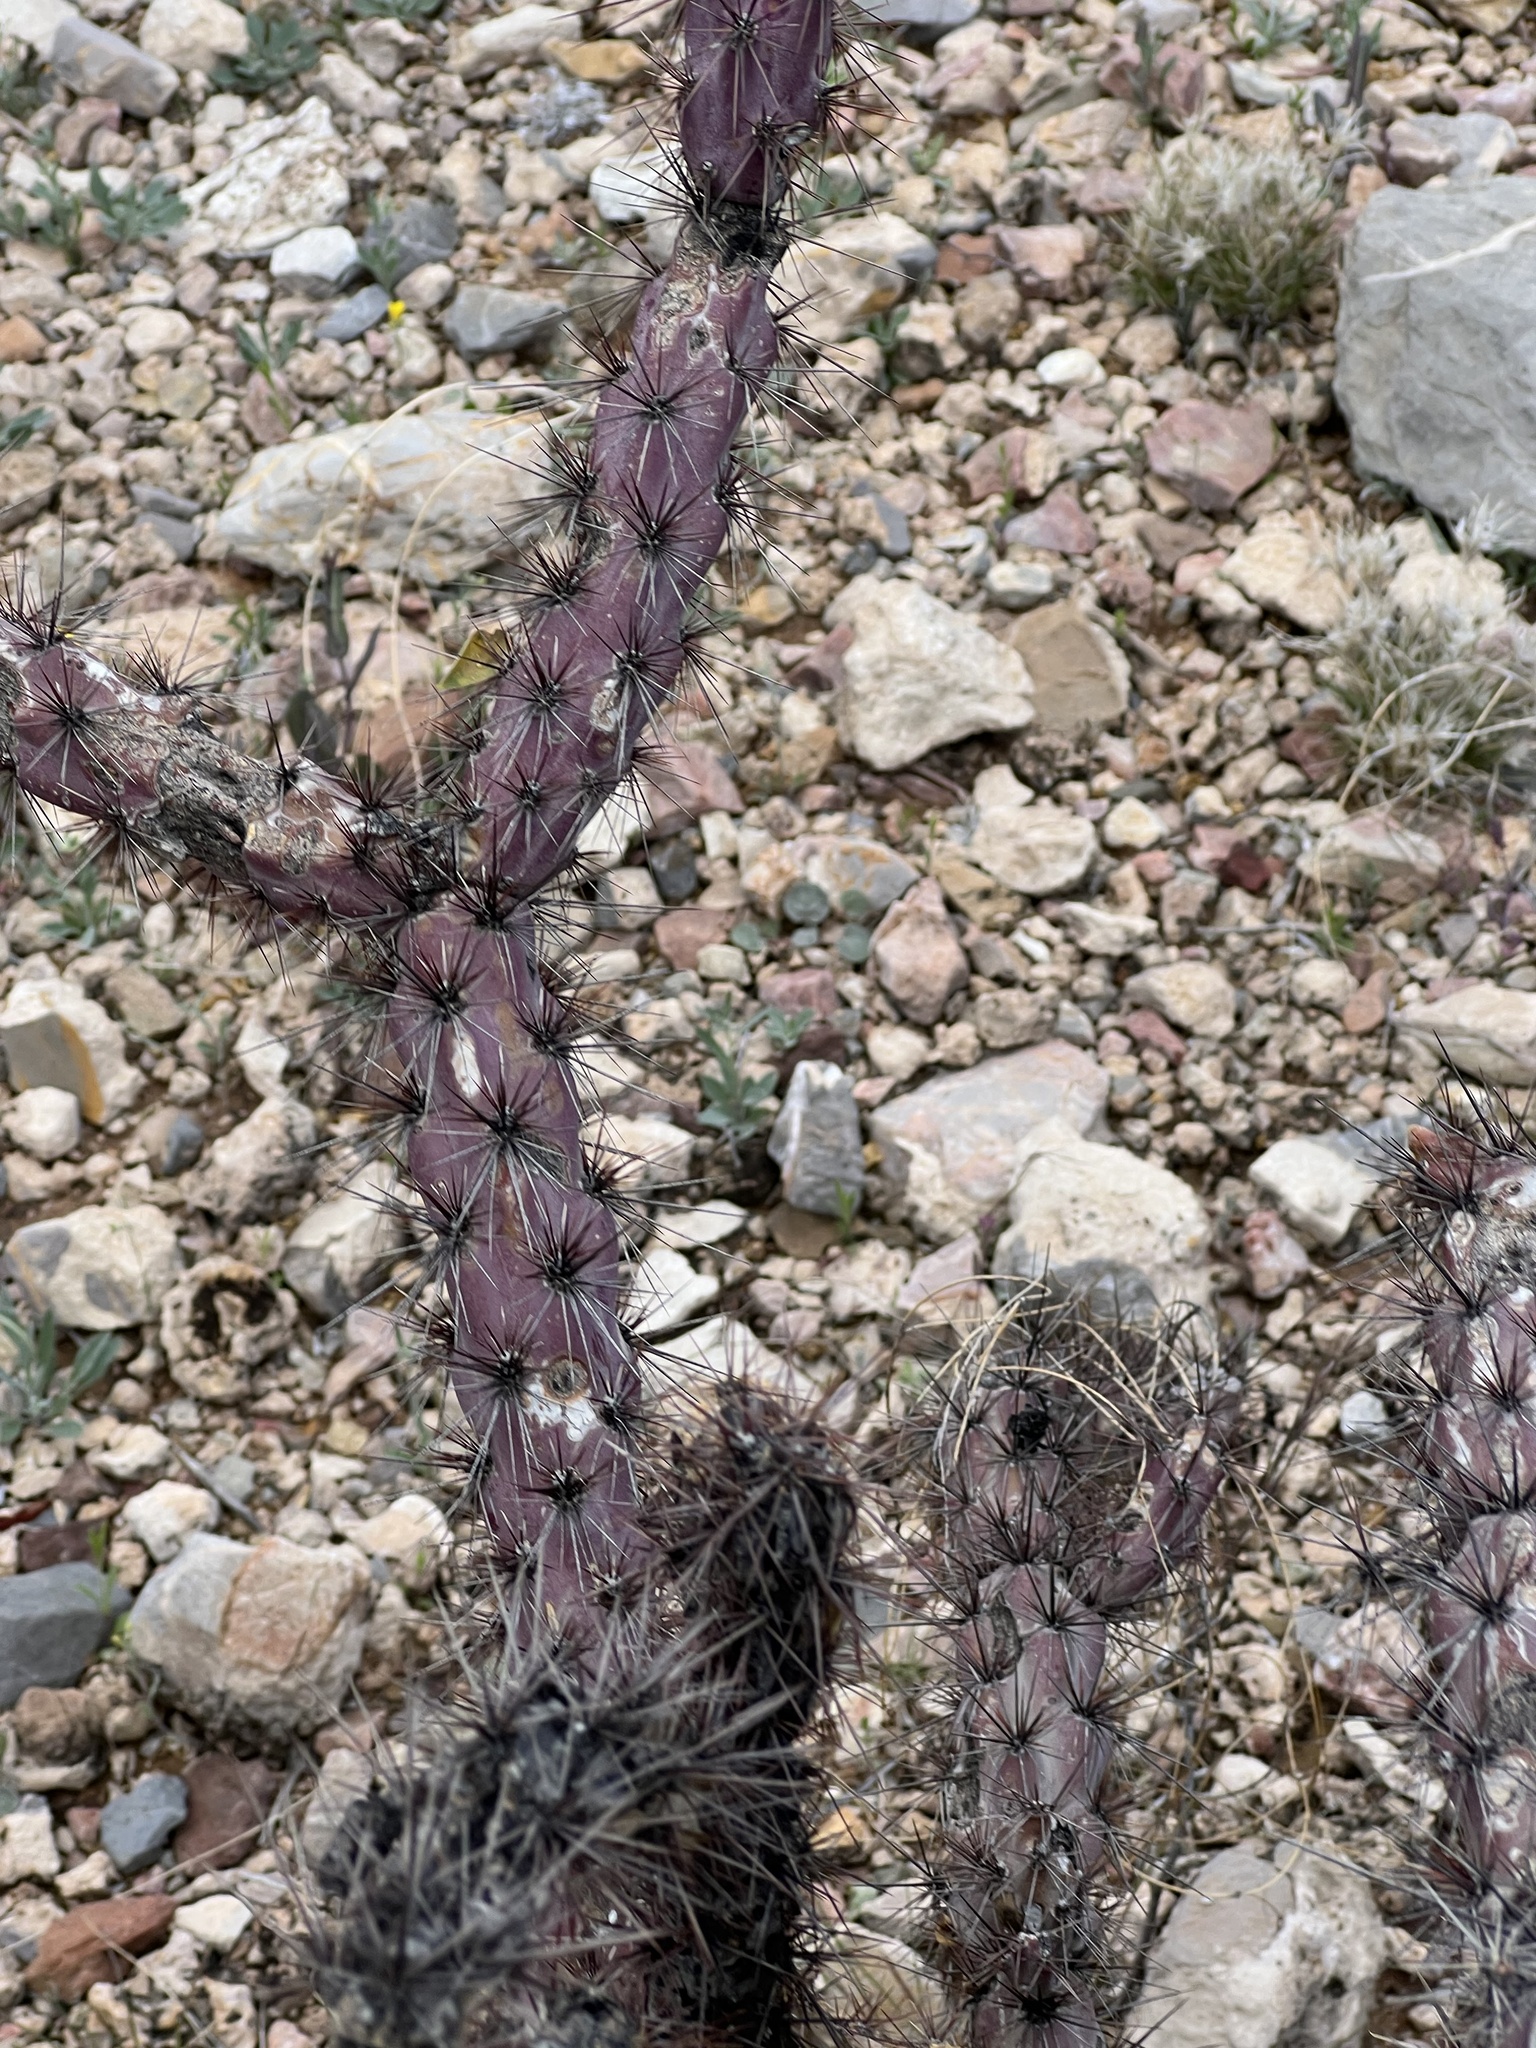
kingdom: Plantae
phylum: Tracheophyta
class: Magnoliopsida
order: Caryophyllales
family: Cactaceae
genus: Cylindropuntia
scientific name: Cylindropuntia thurberi
